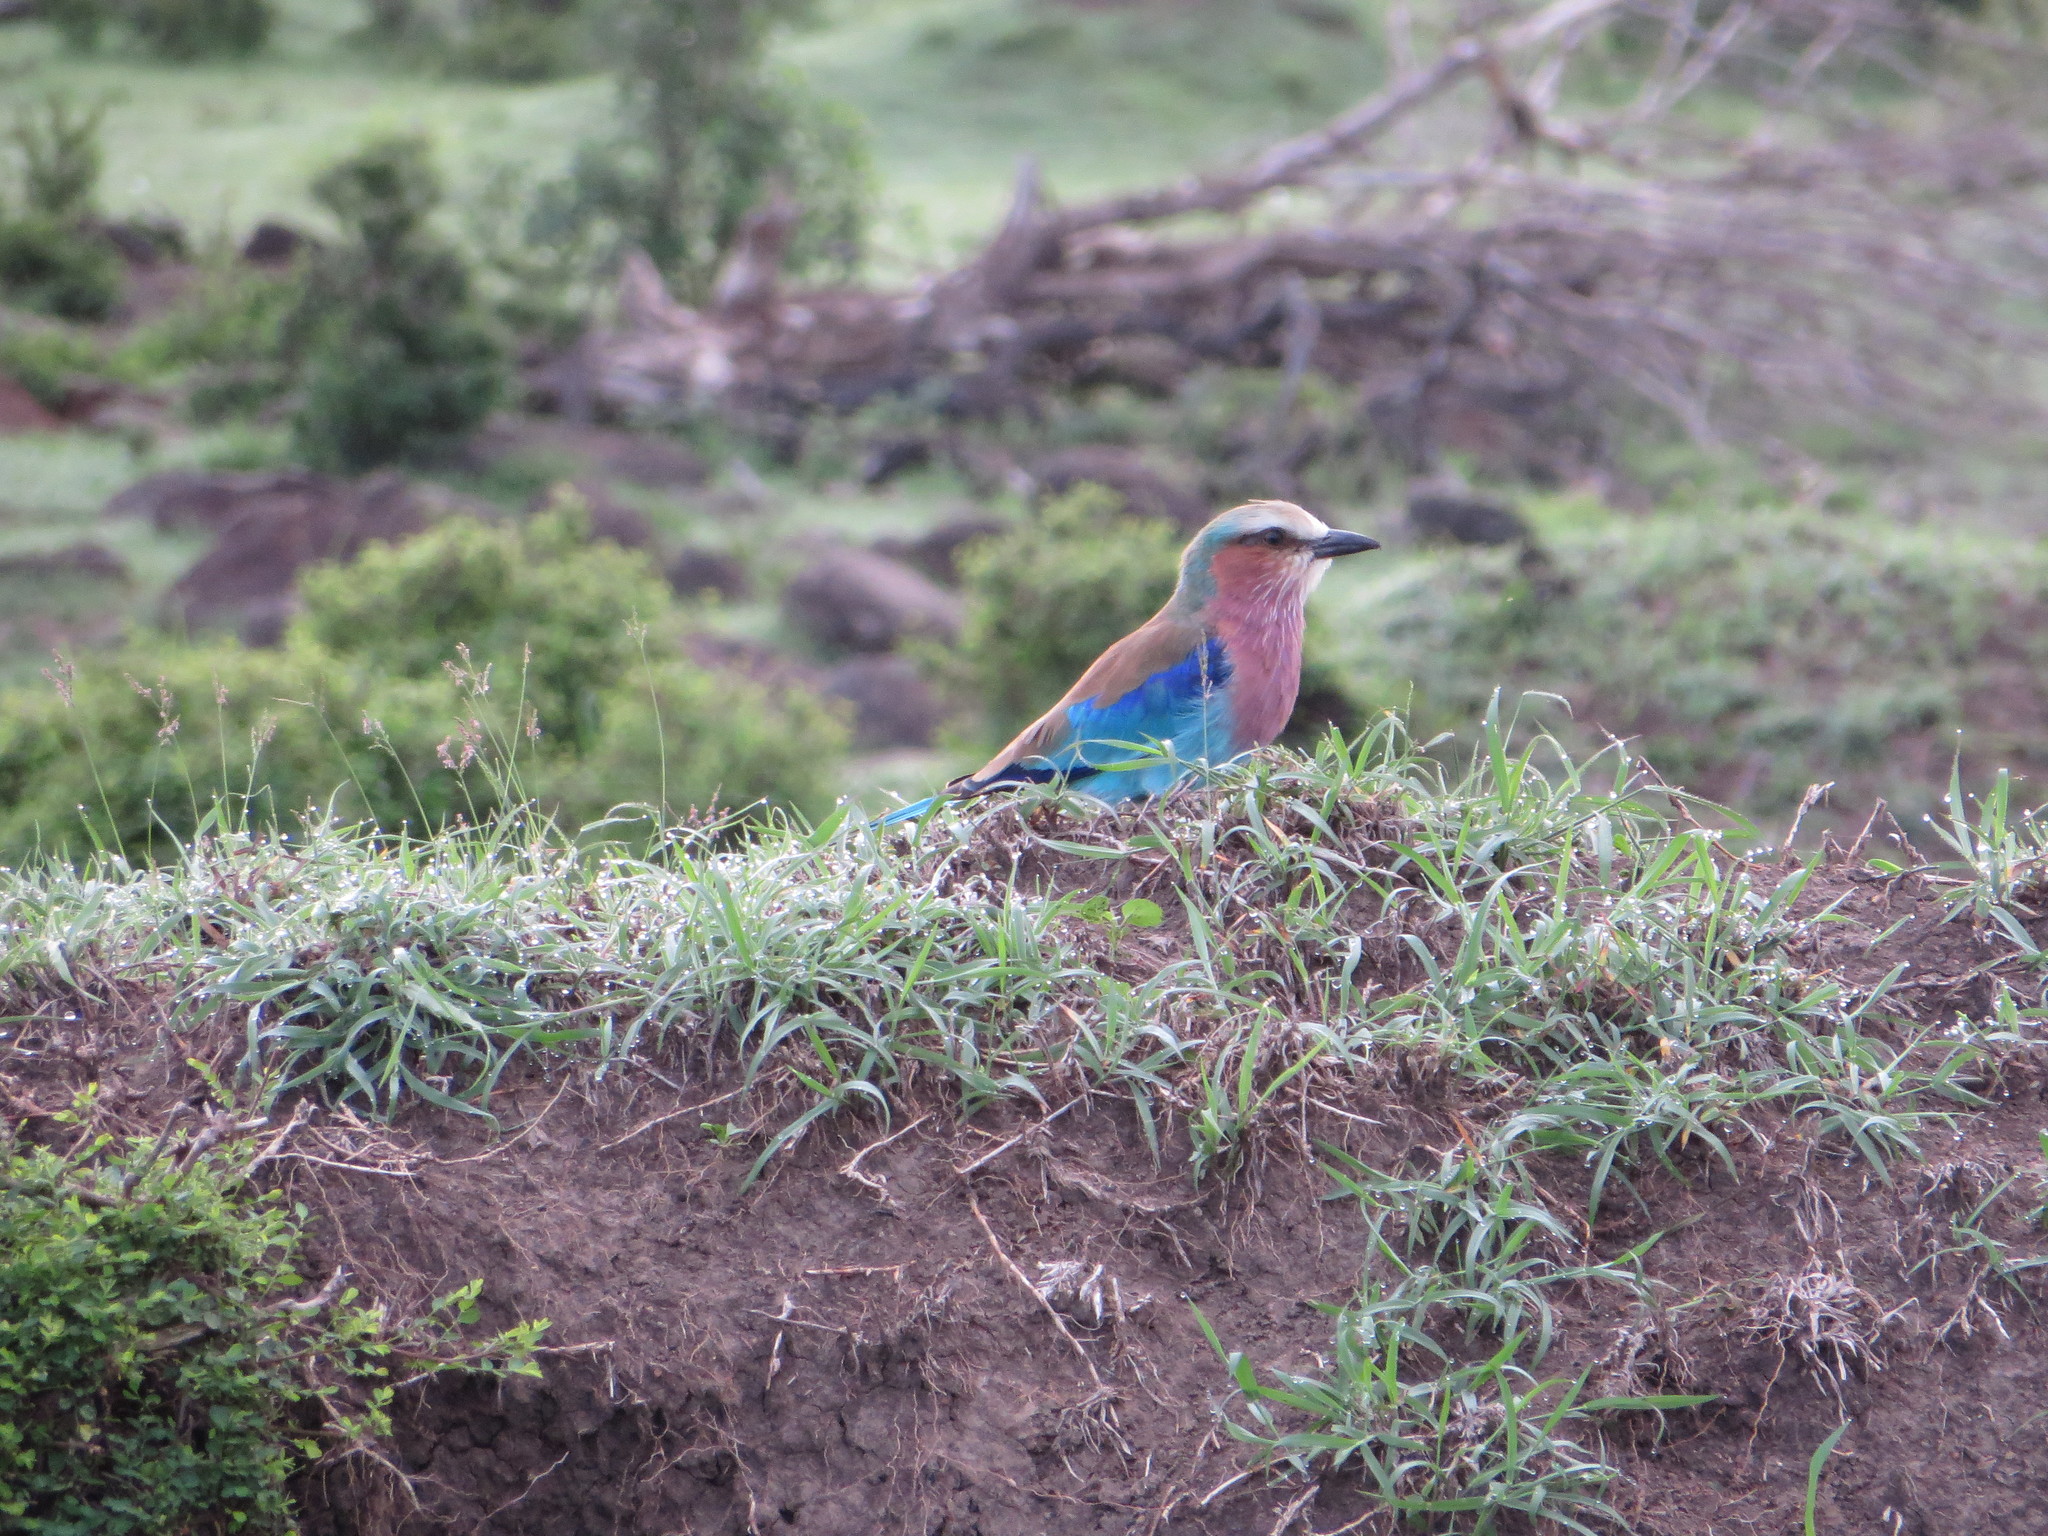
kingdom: Animalia
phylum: Chordata
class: Aves
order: Coraciiformes
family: Coraciidae
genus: Coracias
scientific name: Coracias caudatus
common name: Lilac-breasted roller
